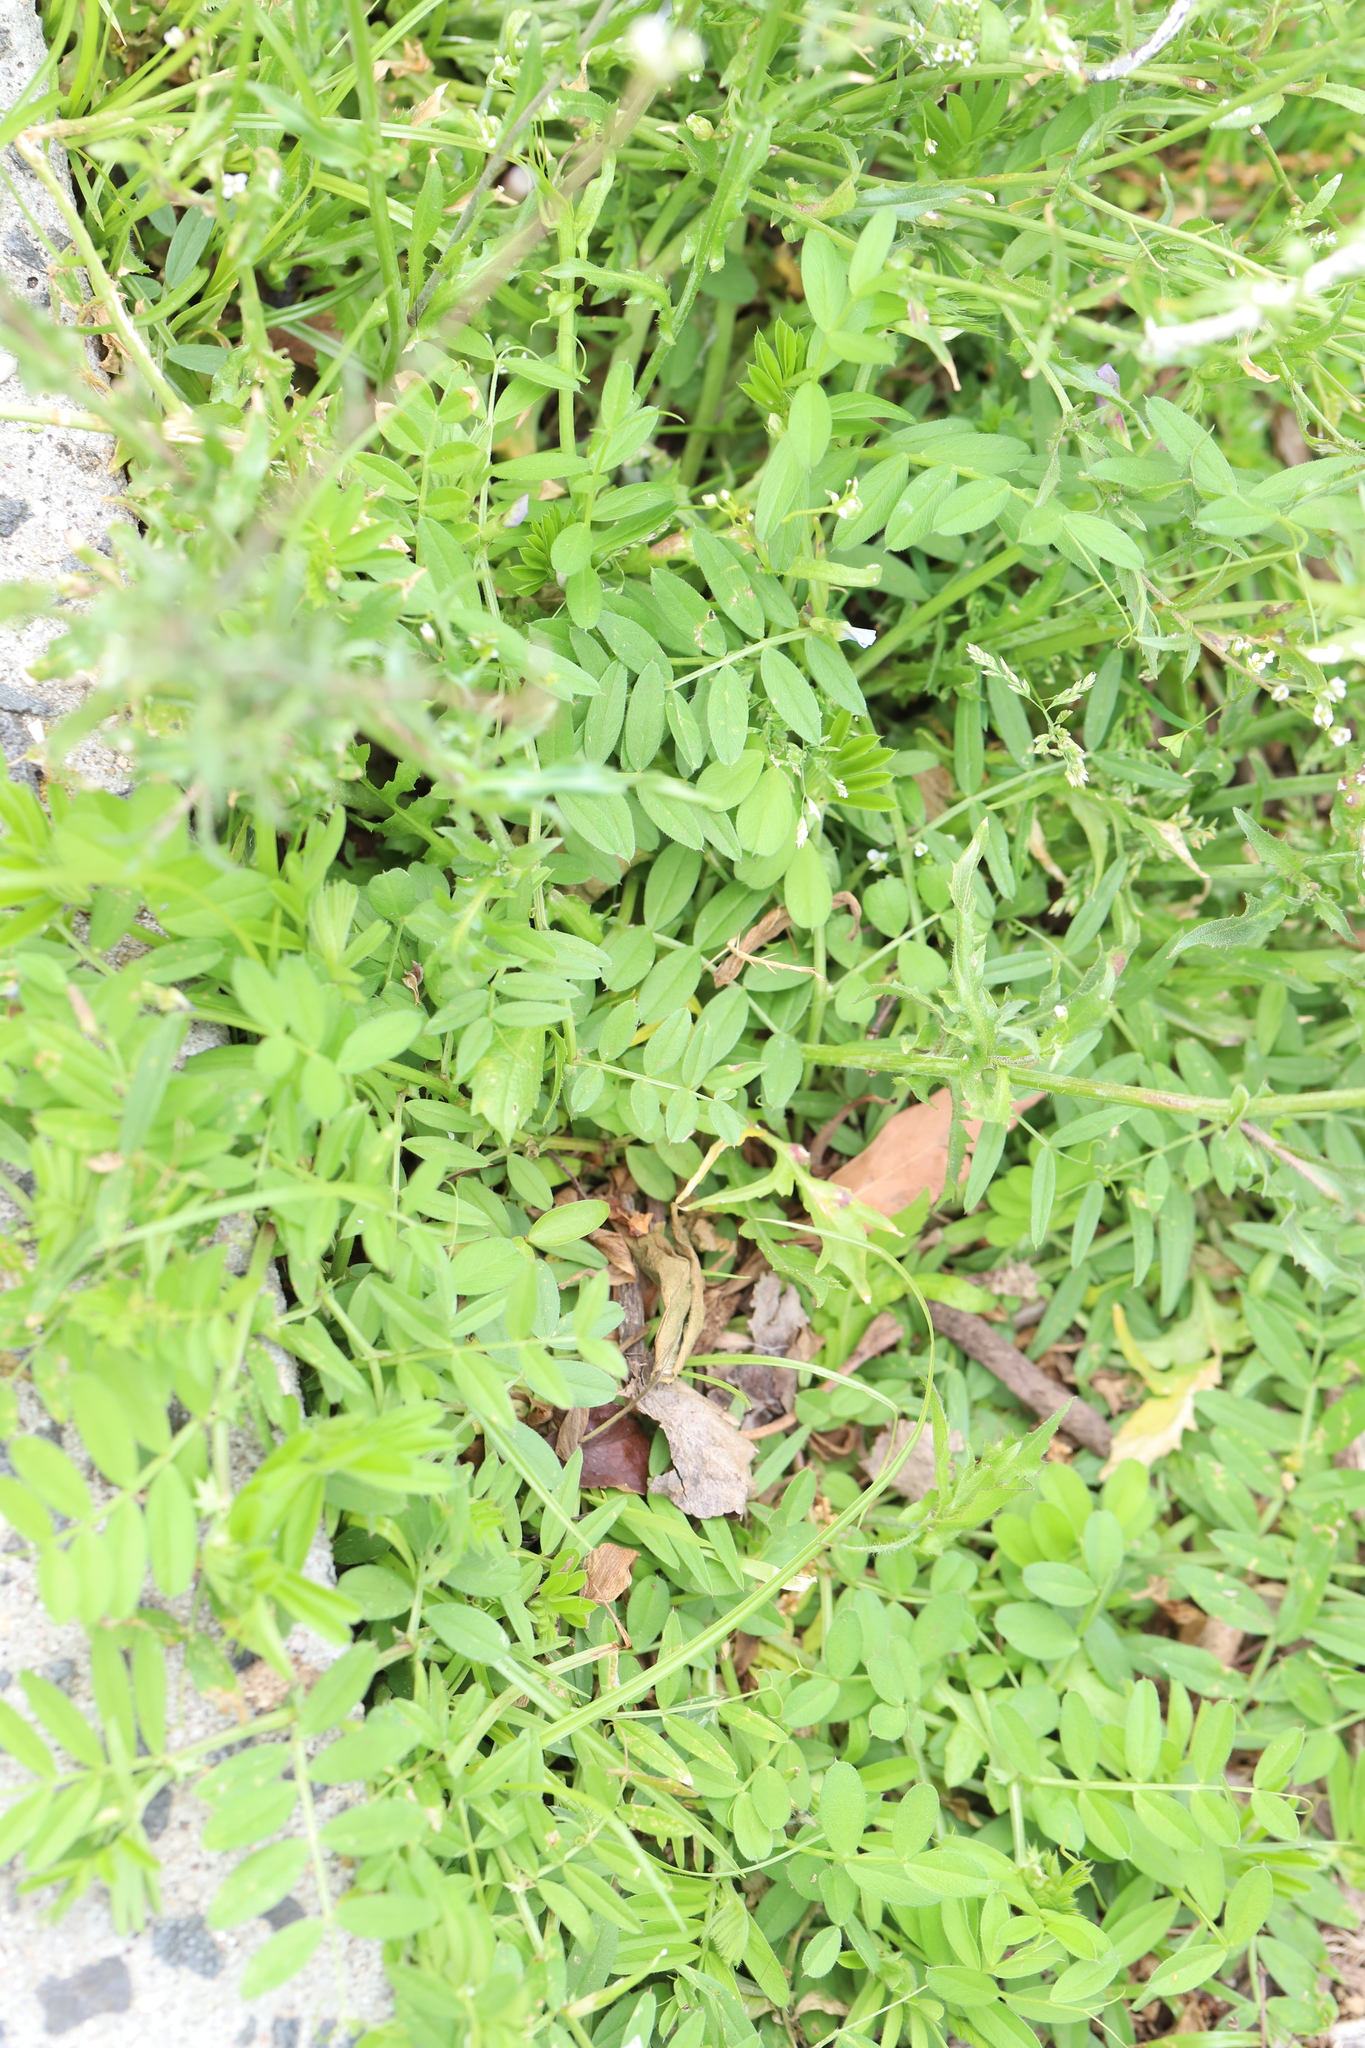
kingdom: Plantae
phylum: Tracheophyta
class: Magnoliopsida
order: Fabales
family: Fabaceae
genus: Vicia
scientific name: Vicia sativa
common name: Garden vetch
